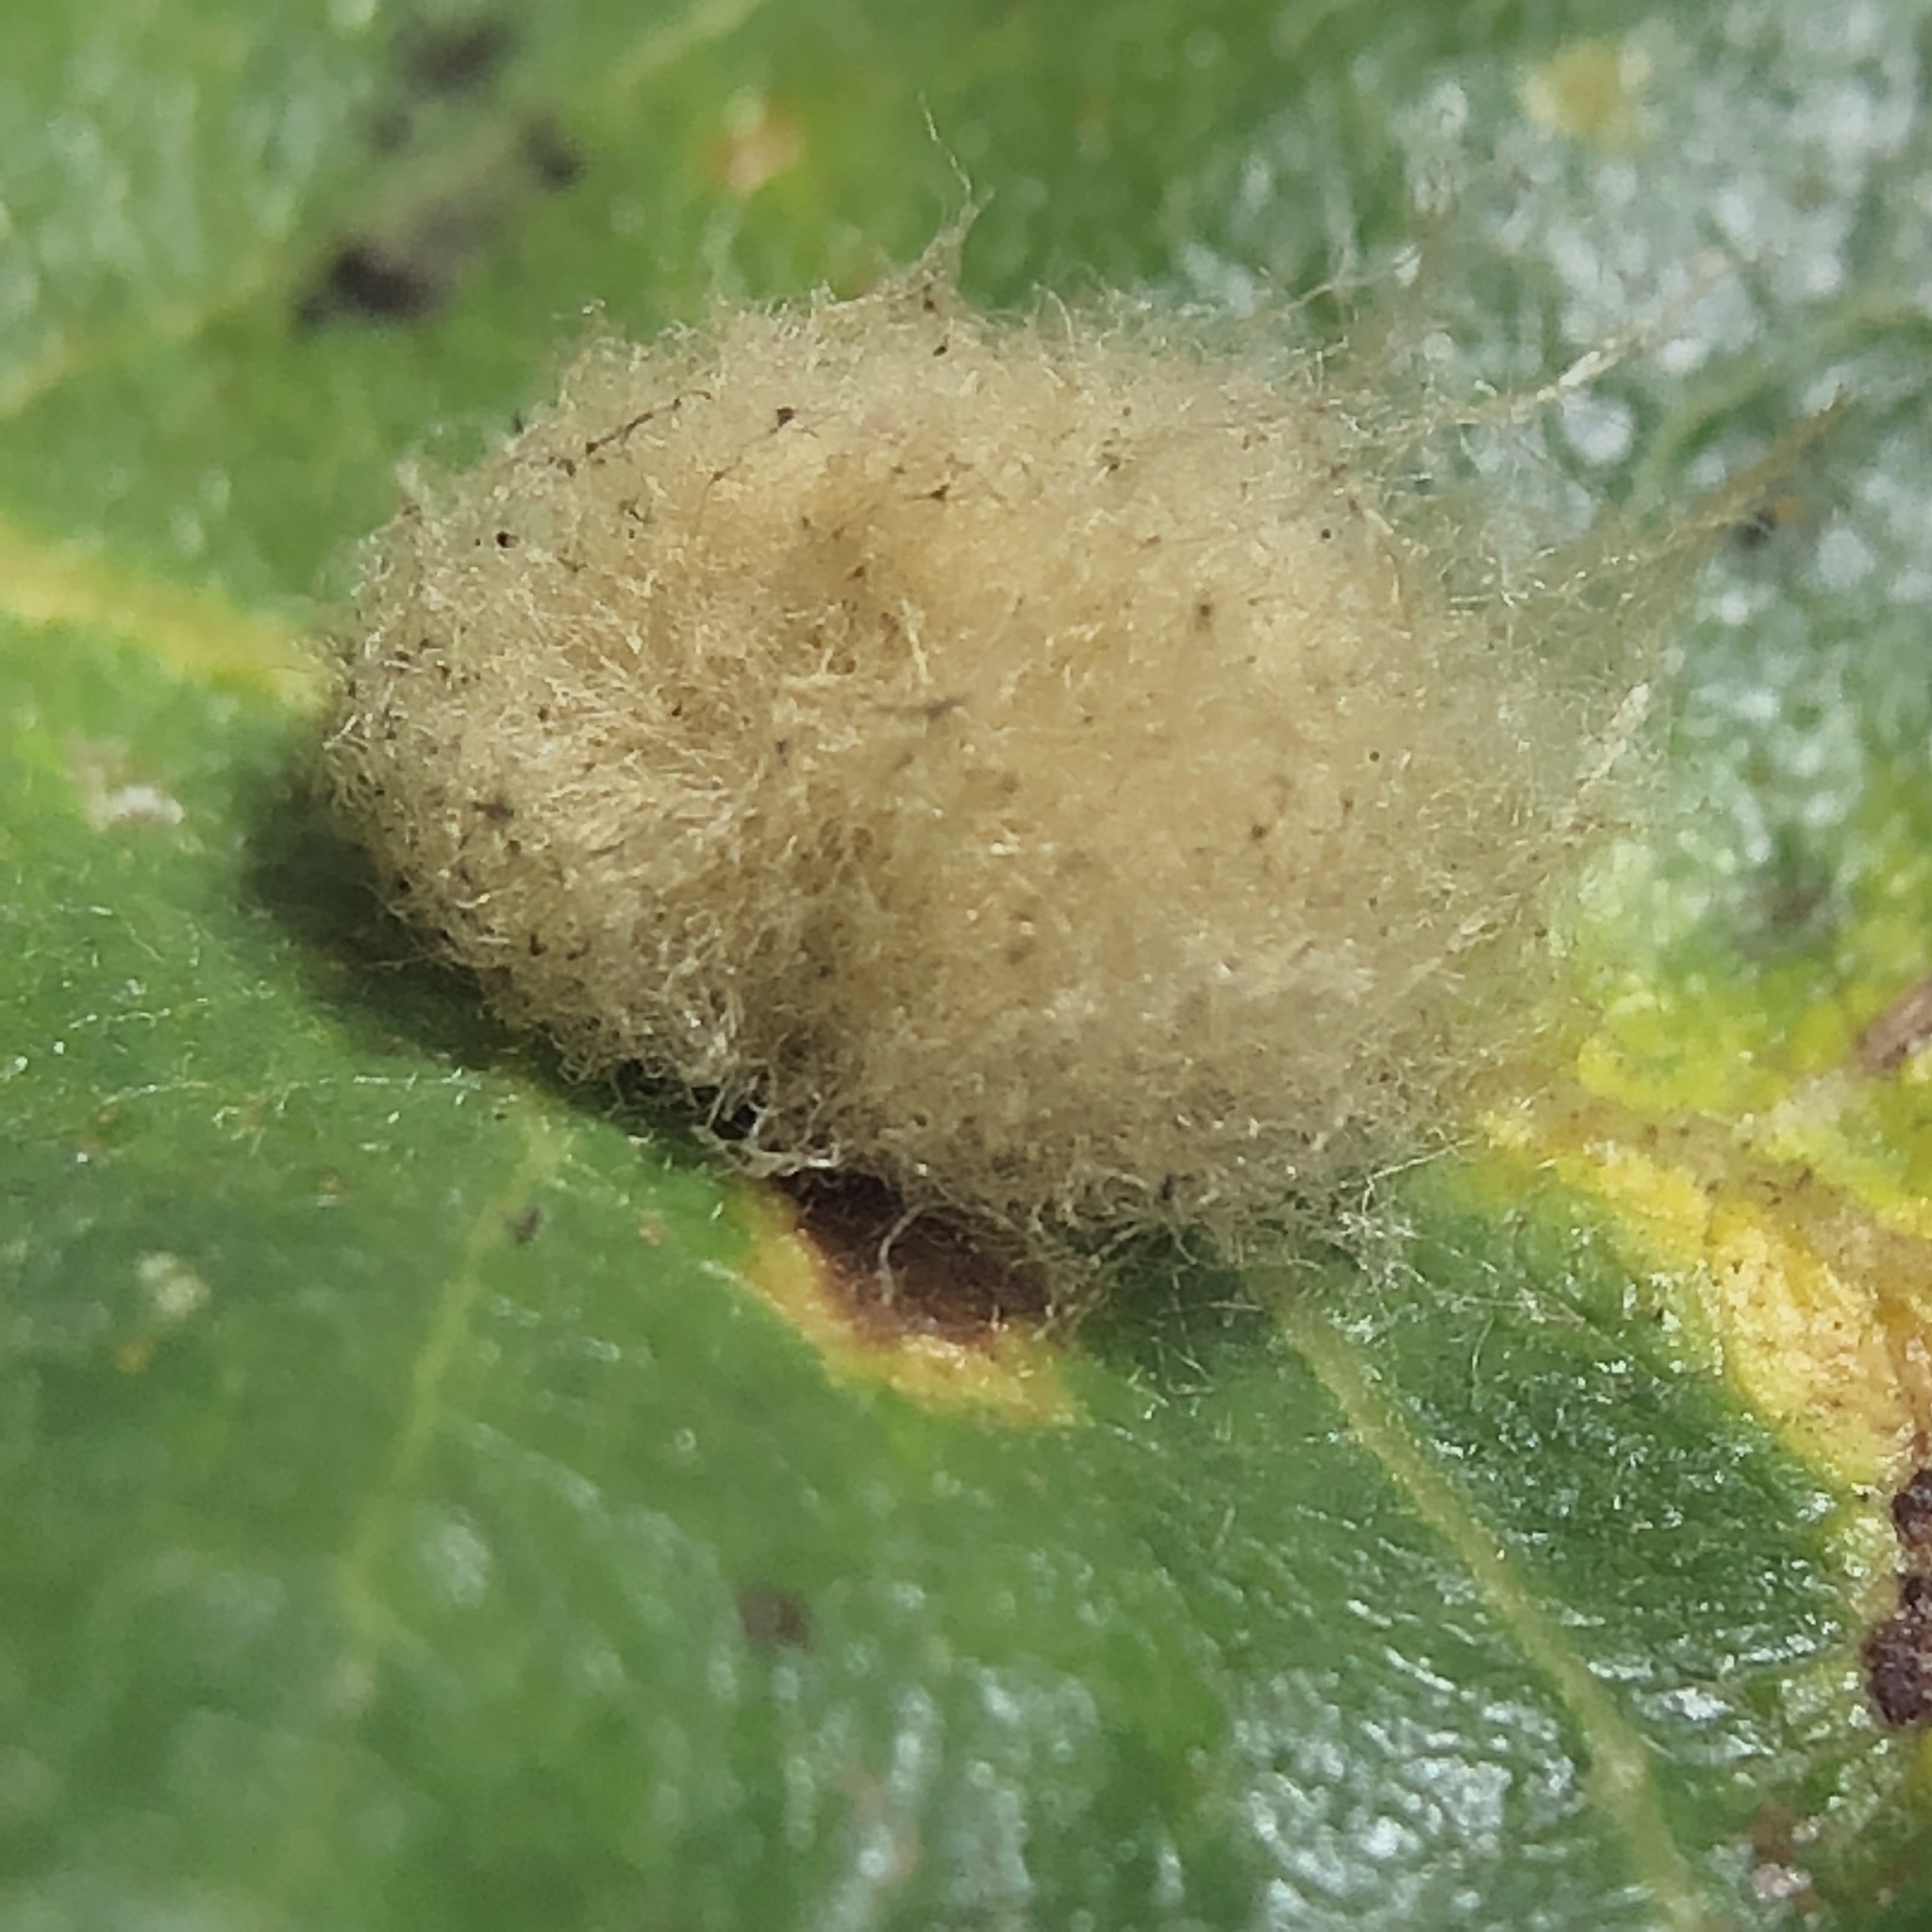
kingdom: Animalia
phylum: Arthropoda
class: Insecta
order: Hymenoptera
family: Cynipidae
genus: Andricus
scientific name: Andricus Druon fullawayi
